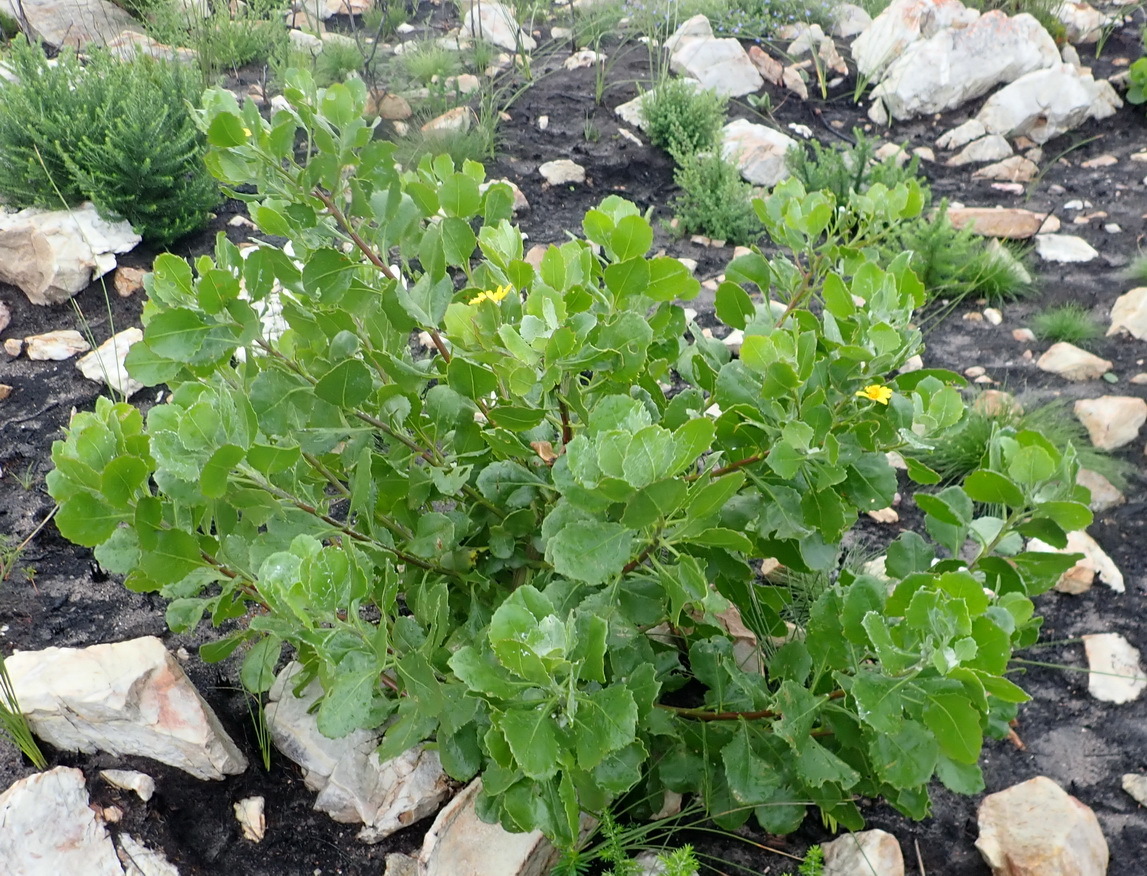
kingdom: Plantae
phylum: Tracheophyta
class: Magnoliopsida
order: Asterales
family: Asteraceae
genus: Osteospermum
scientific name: Osteospermum moniliferum
